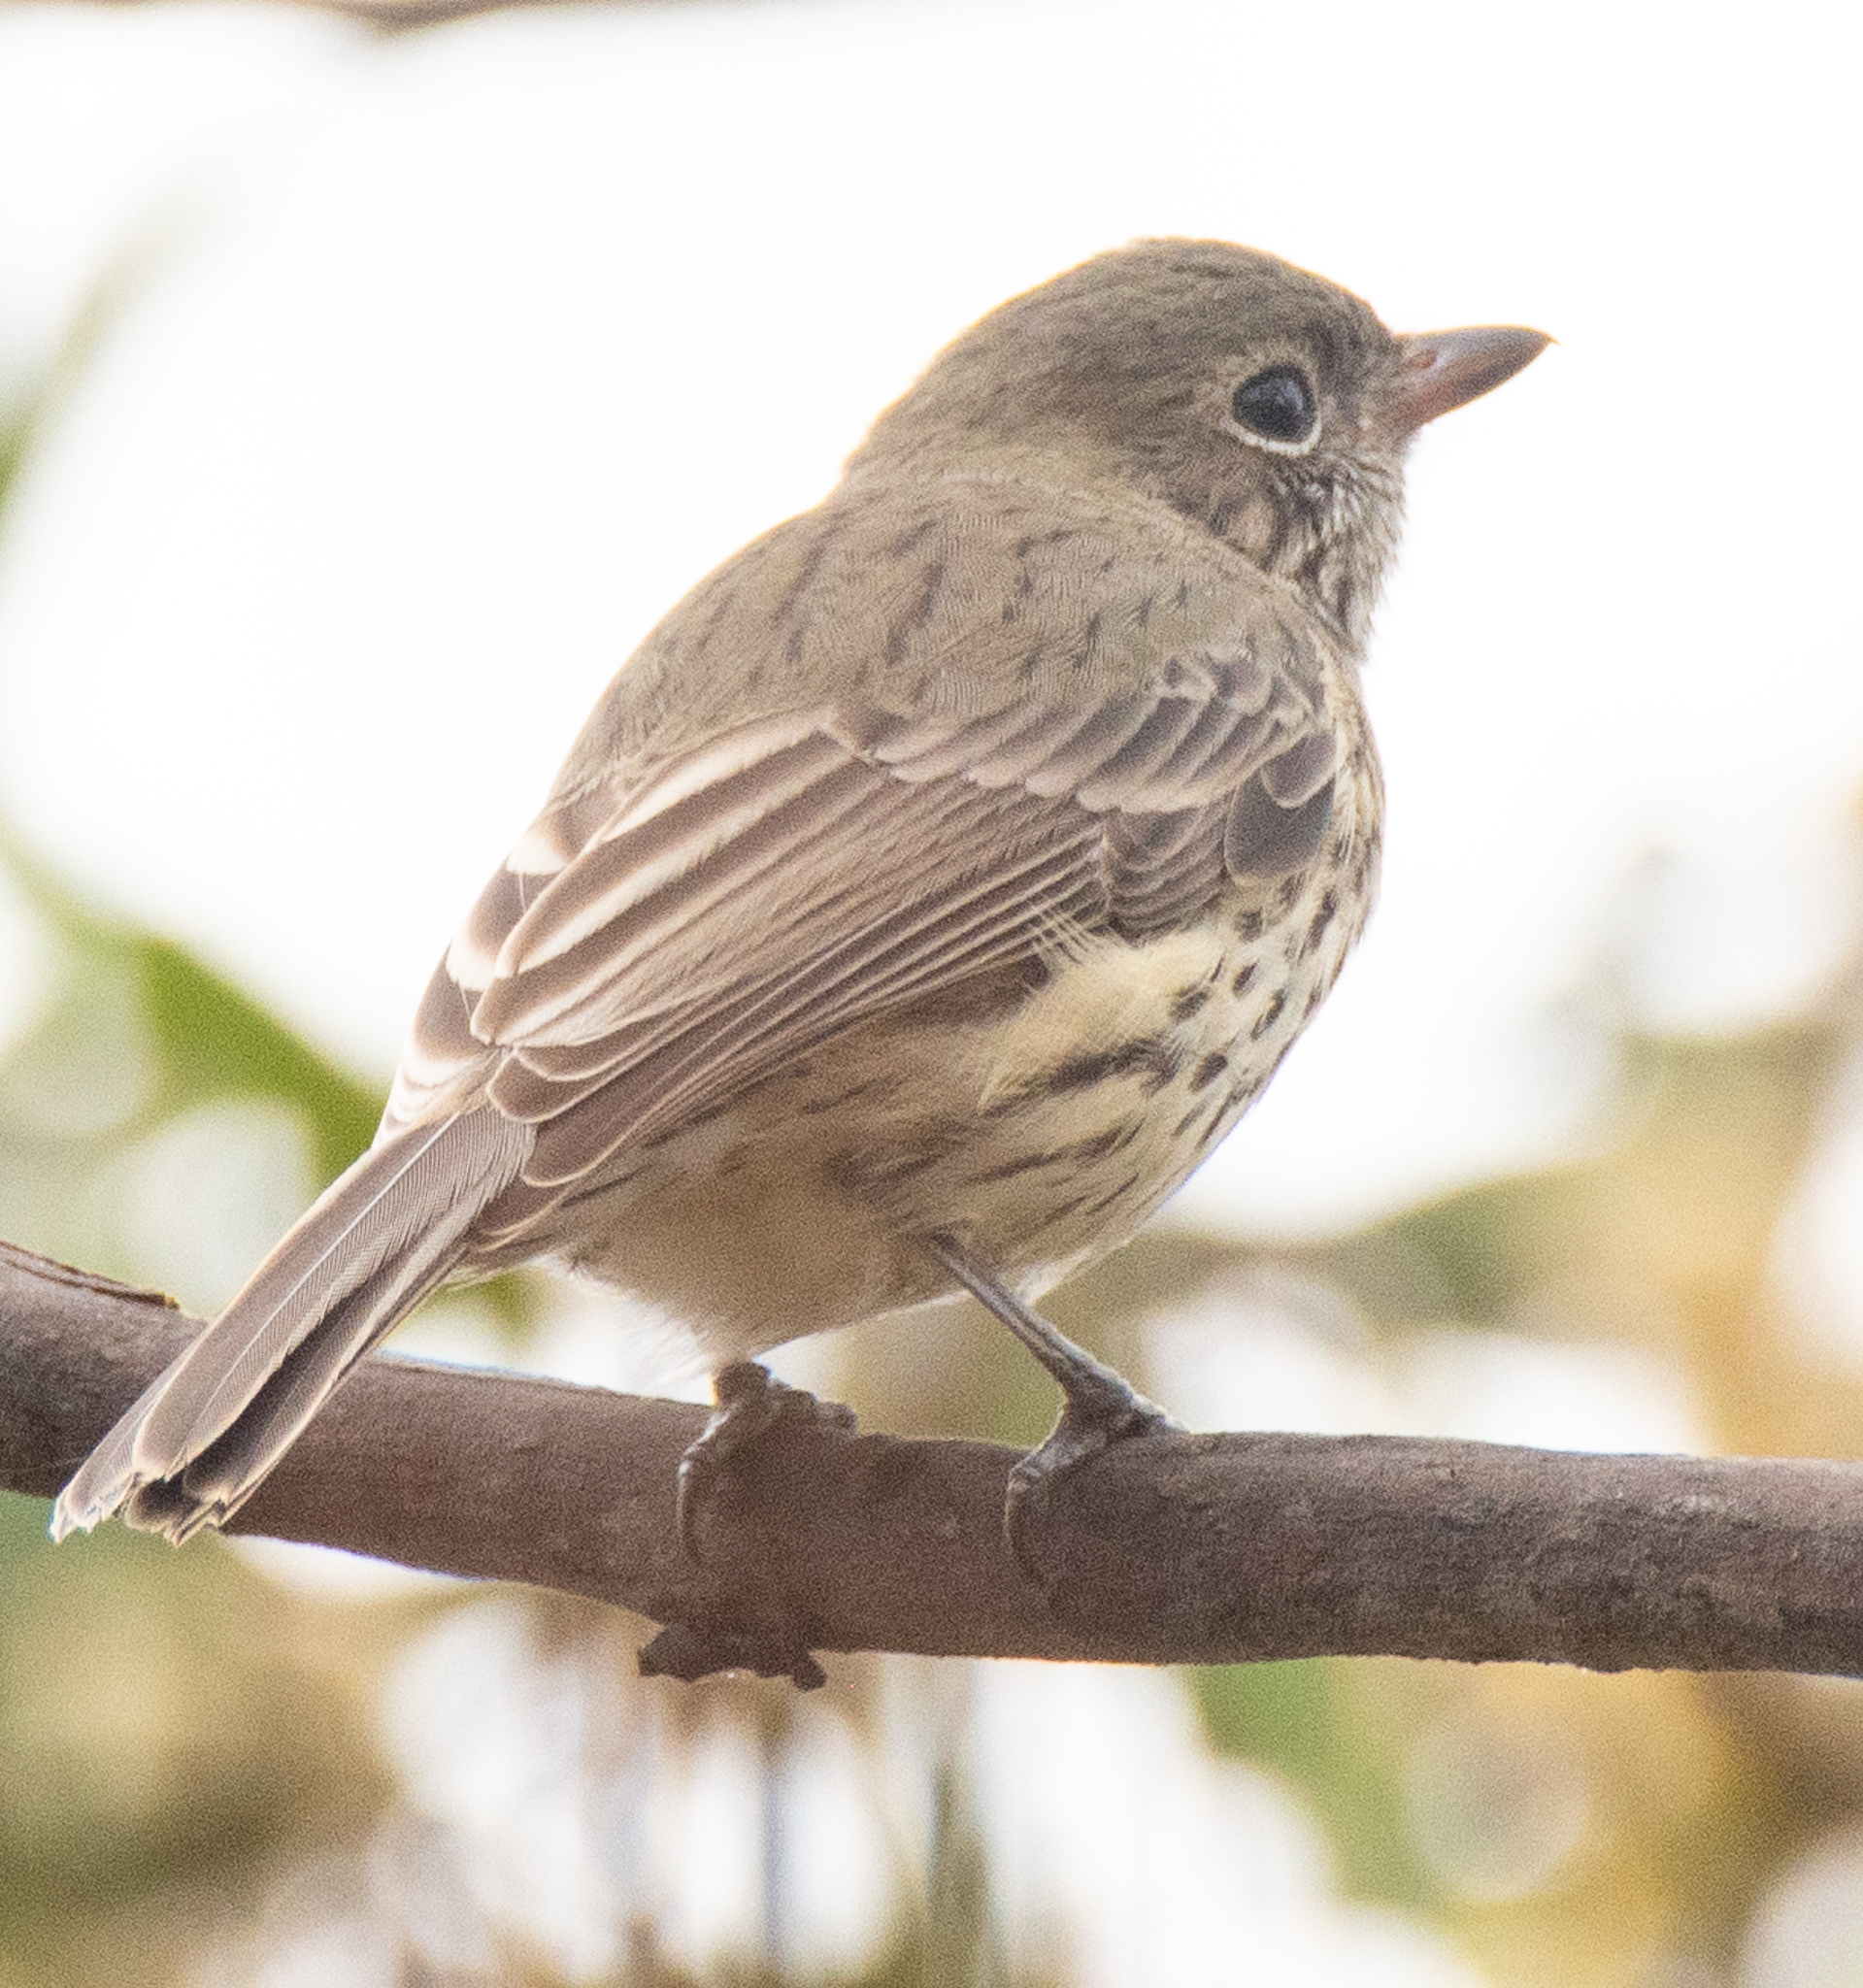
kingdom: Animalia
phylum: Chordata
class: Aves
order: Passeriformes
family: Pachycephalidae
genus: Pachycephala
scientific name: Pachycephala rufiventris
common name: Rufous whistler
